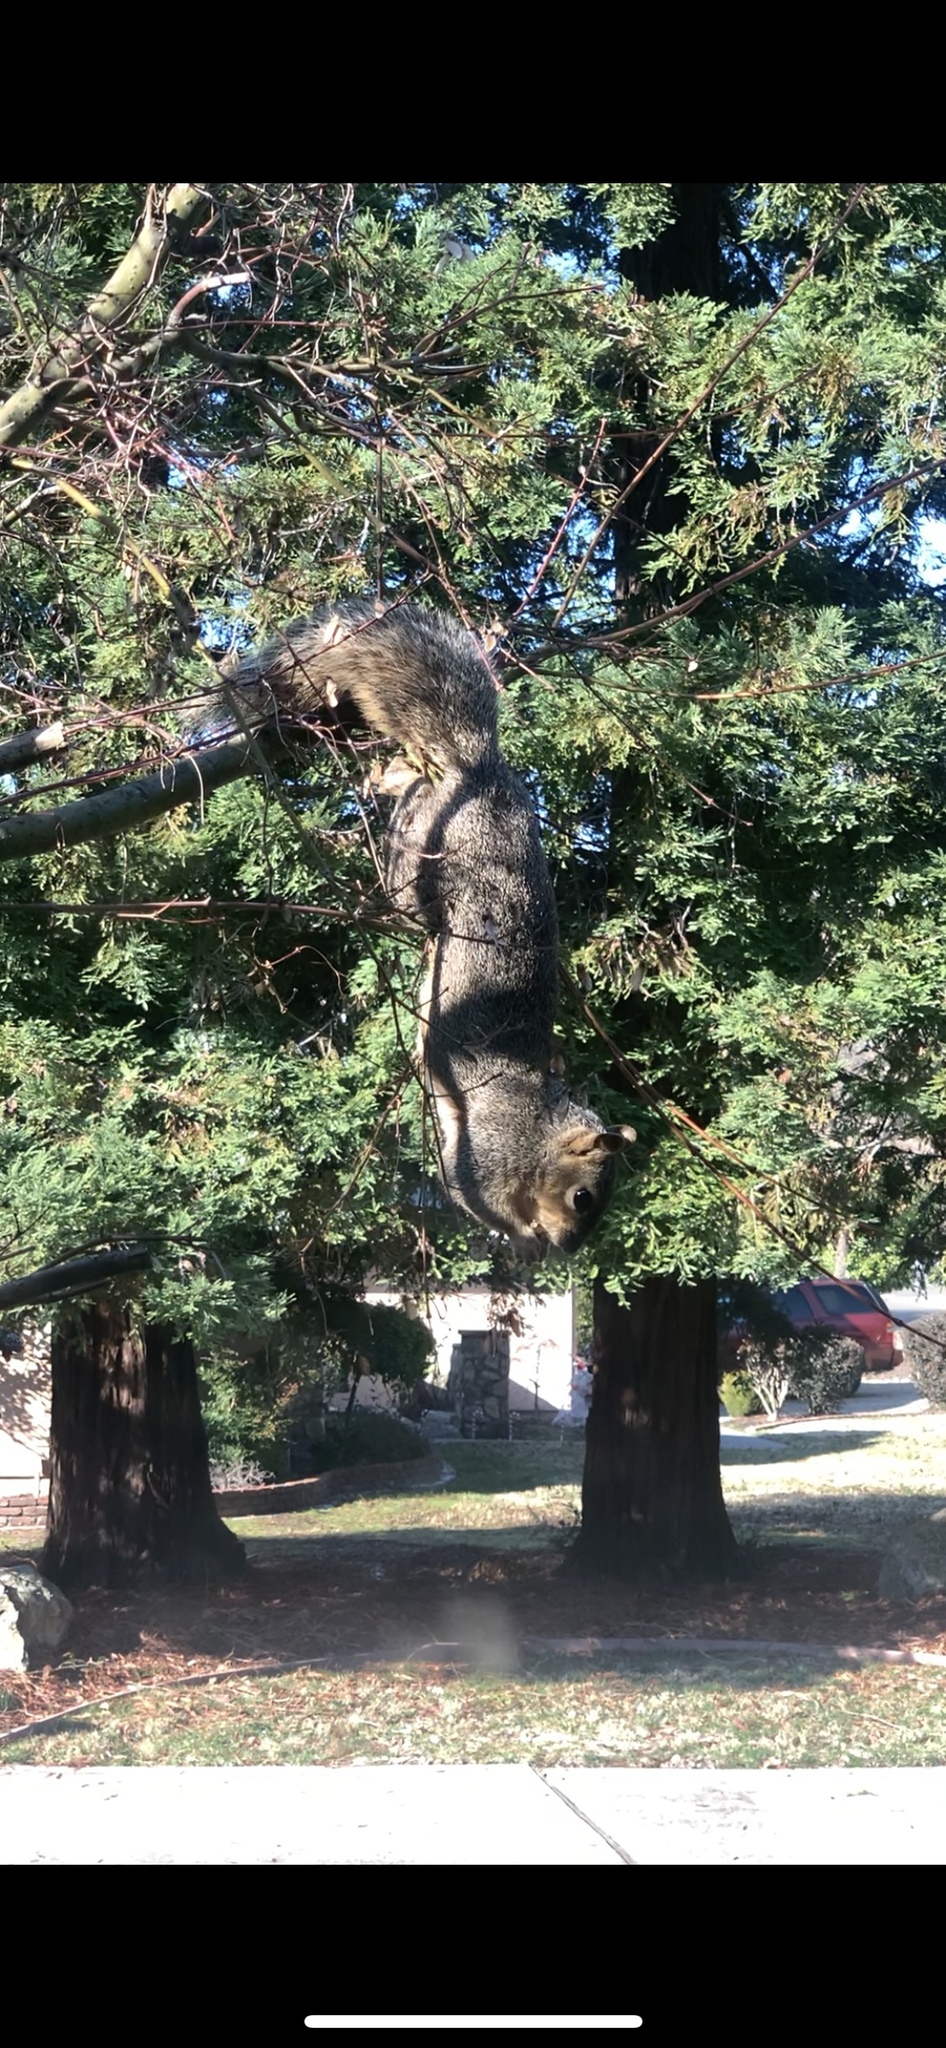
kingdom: Animalia
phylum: Chordata
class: Mammalia
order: Rodentia
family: Sciuridae
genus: Sciurus
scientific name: Sciurus niger
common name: Fox squirrel
